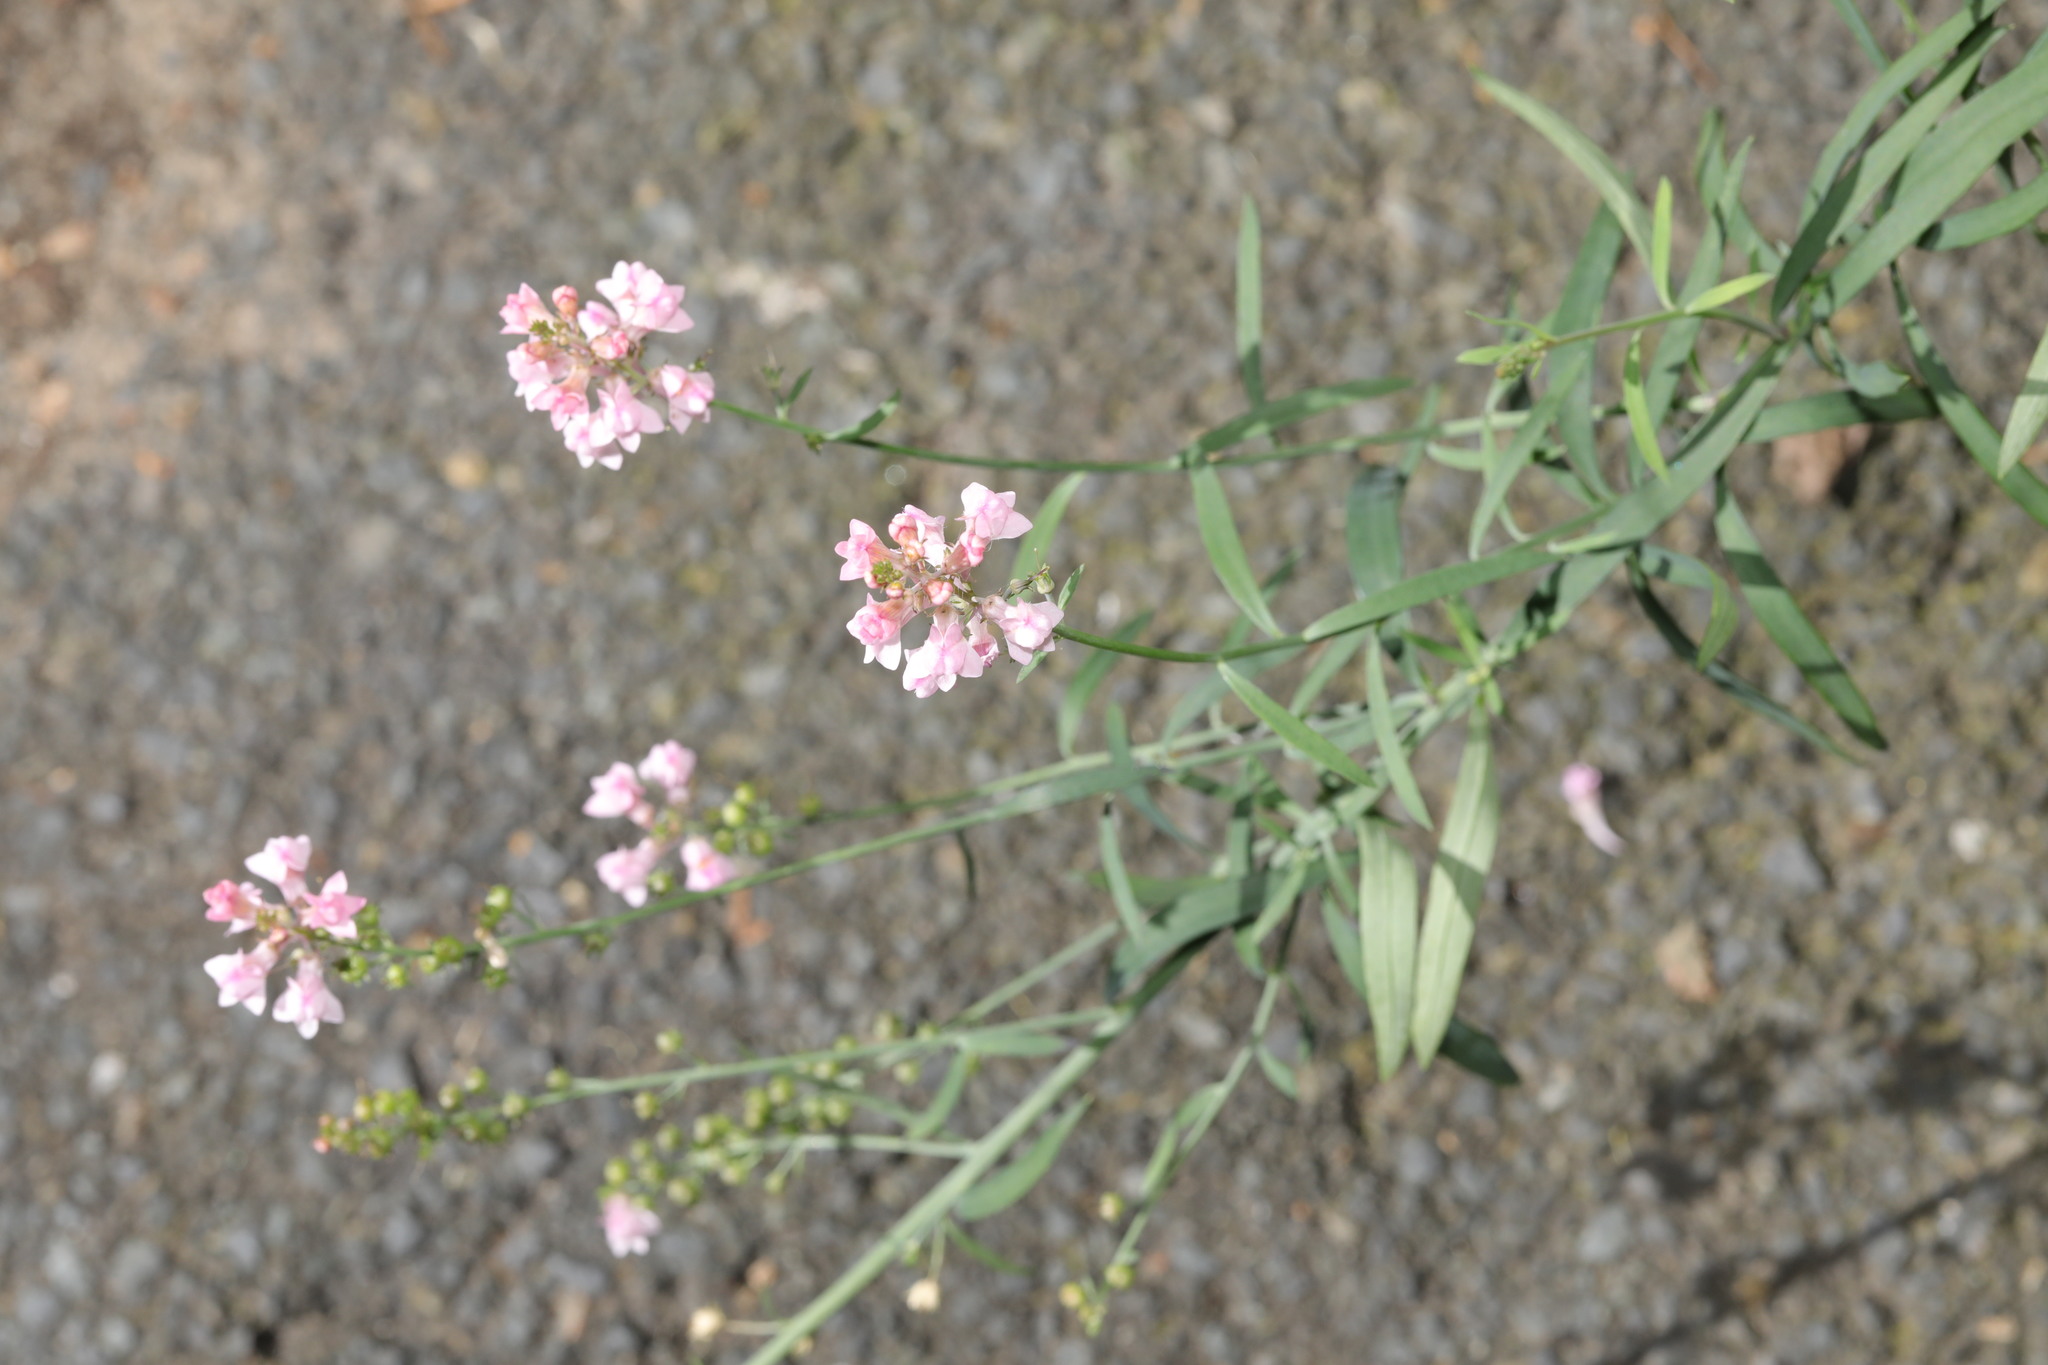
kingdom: Plantae
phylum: Tracheophyta
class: Magnoliopsida
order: Lamiales
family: Plantaginaceae
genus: Linaria
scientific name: Linaria purpurea
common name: Purple toadflax
